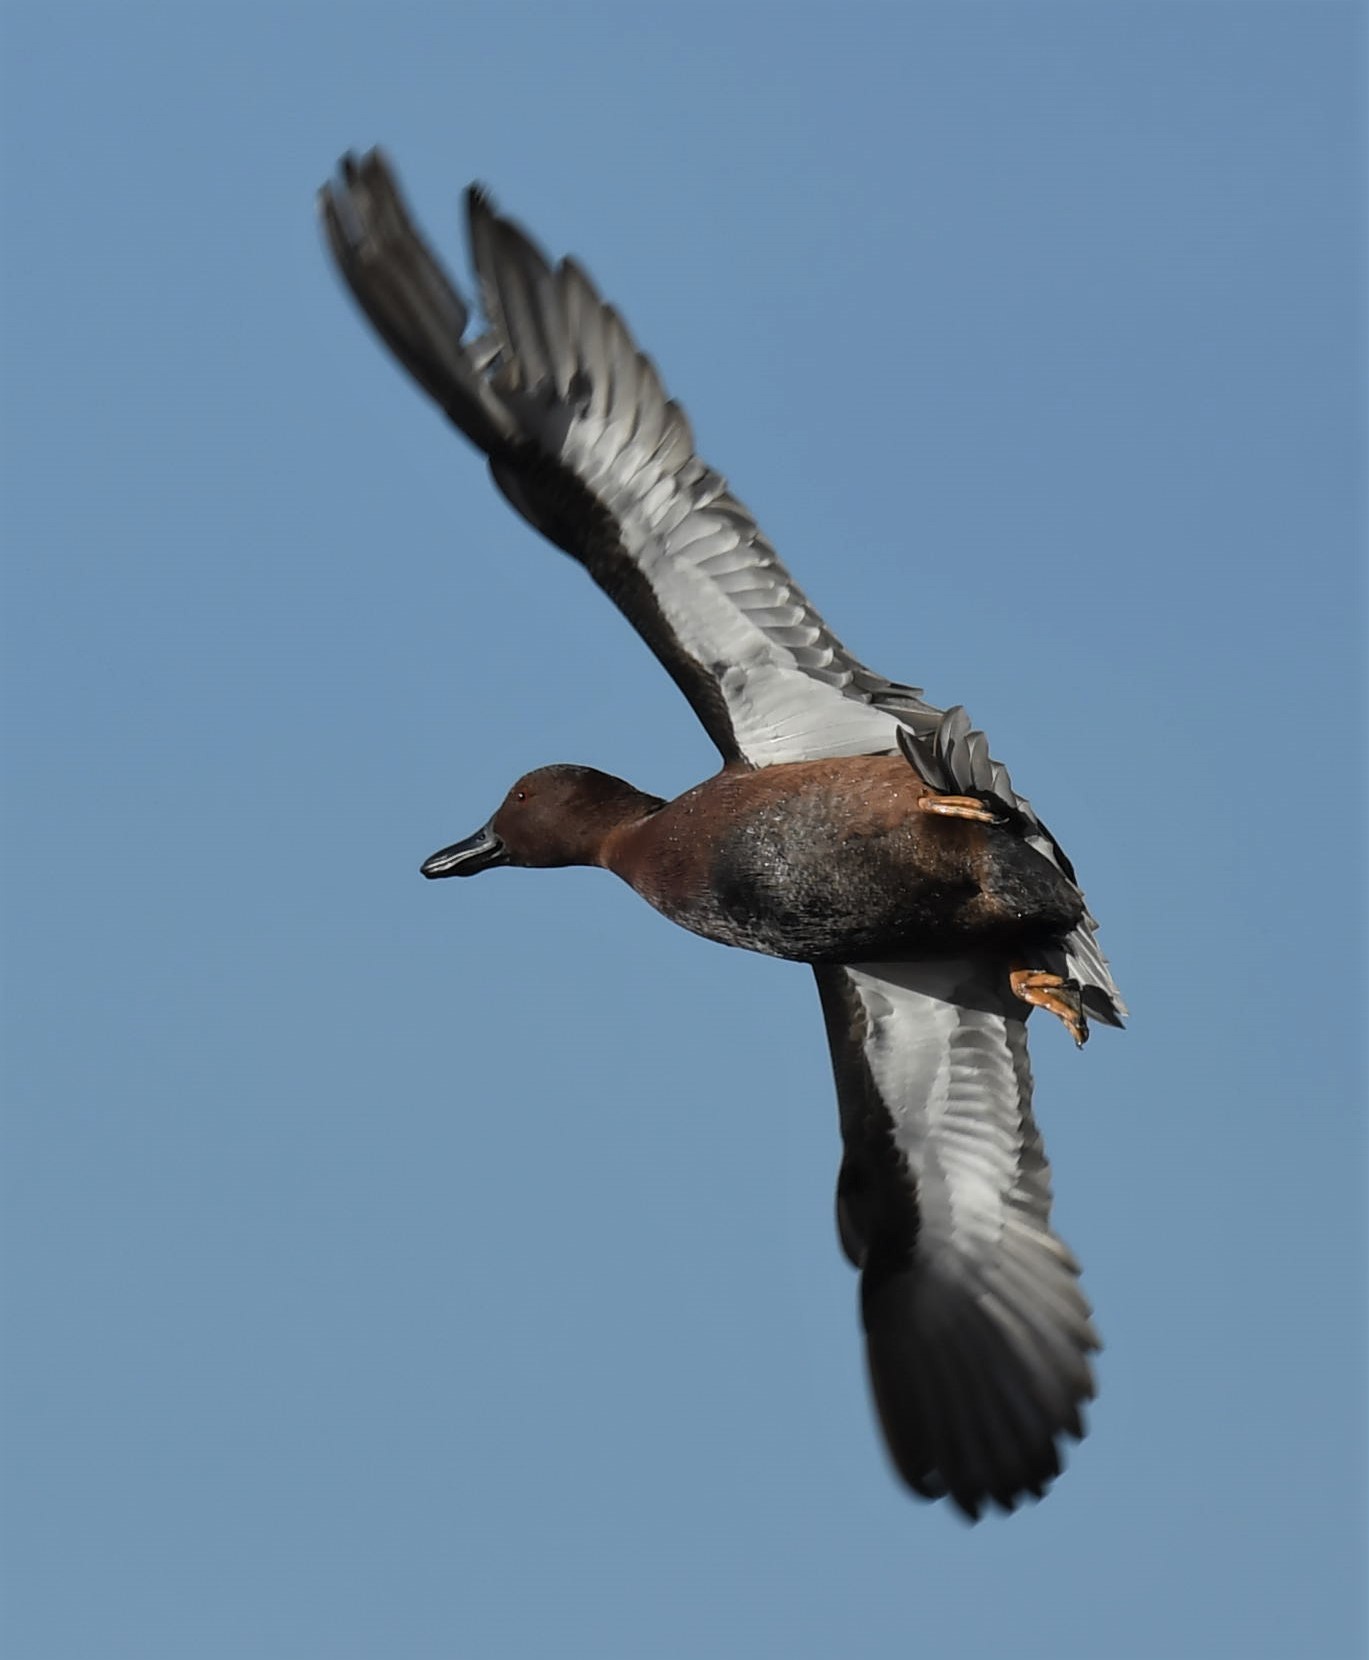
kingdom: Animalia
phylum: Chordata
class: Aves
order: Anseriformes
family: Anatidae
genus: Spatula
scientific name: Spatula cyanoptera
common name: Cinnamon teal
